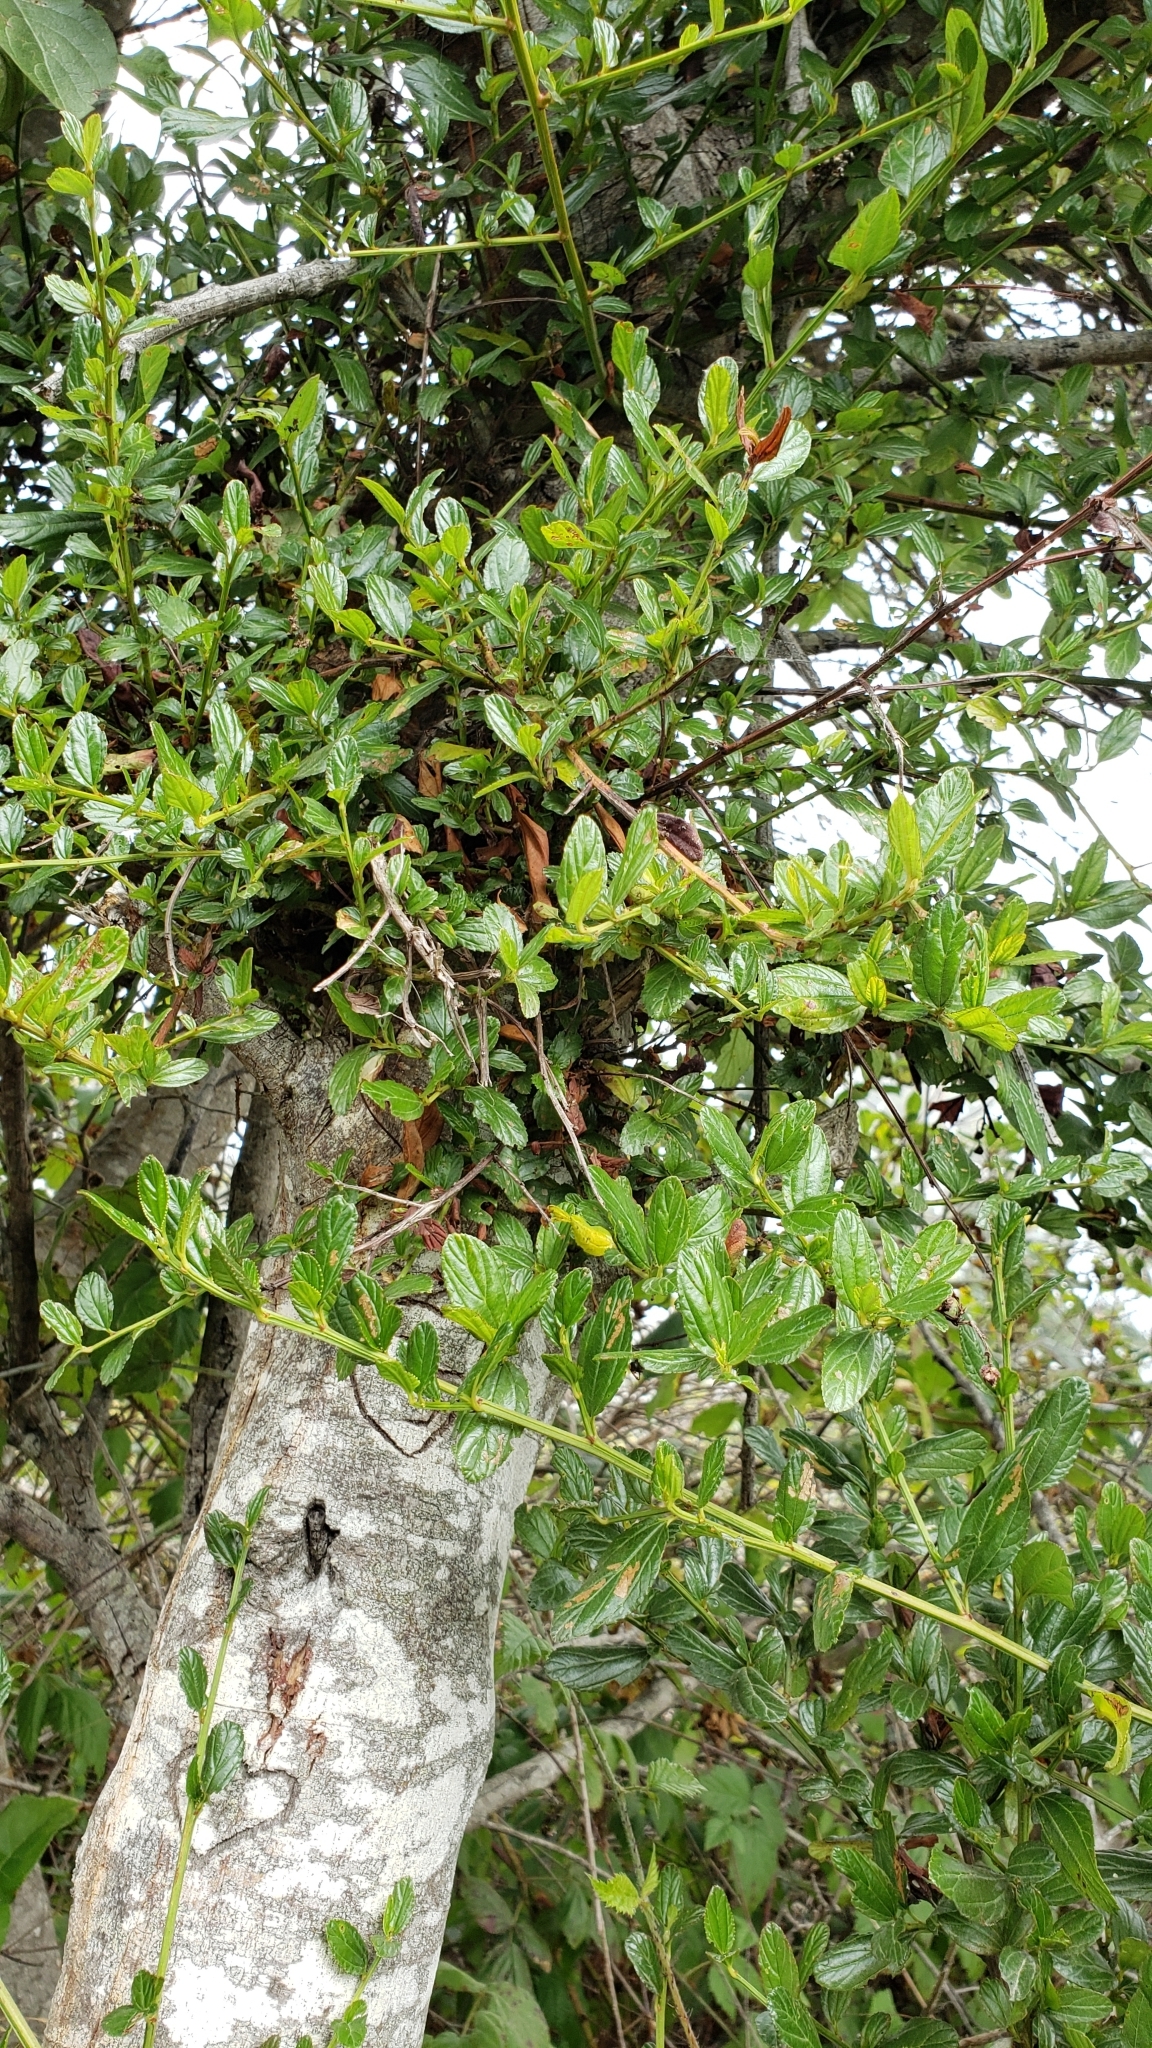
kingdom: Plantae
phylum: Tracheophyta
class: Magnoliopsida
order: Rosales
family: Rhamnaceae
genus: Ceanothus
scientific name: Ceanothus thyrsiflorus
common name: California-lilac
